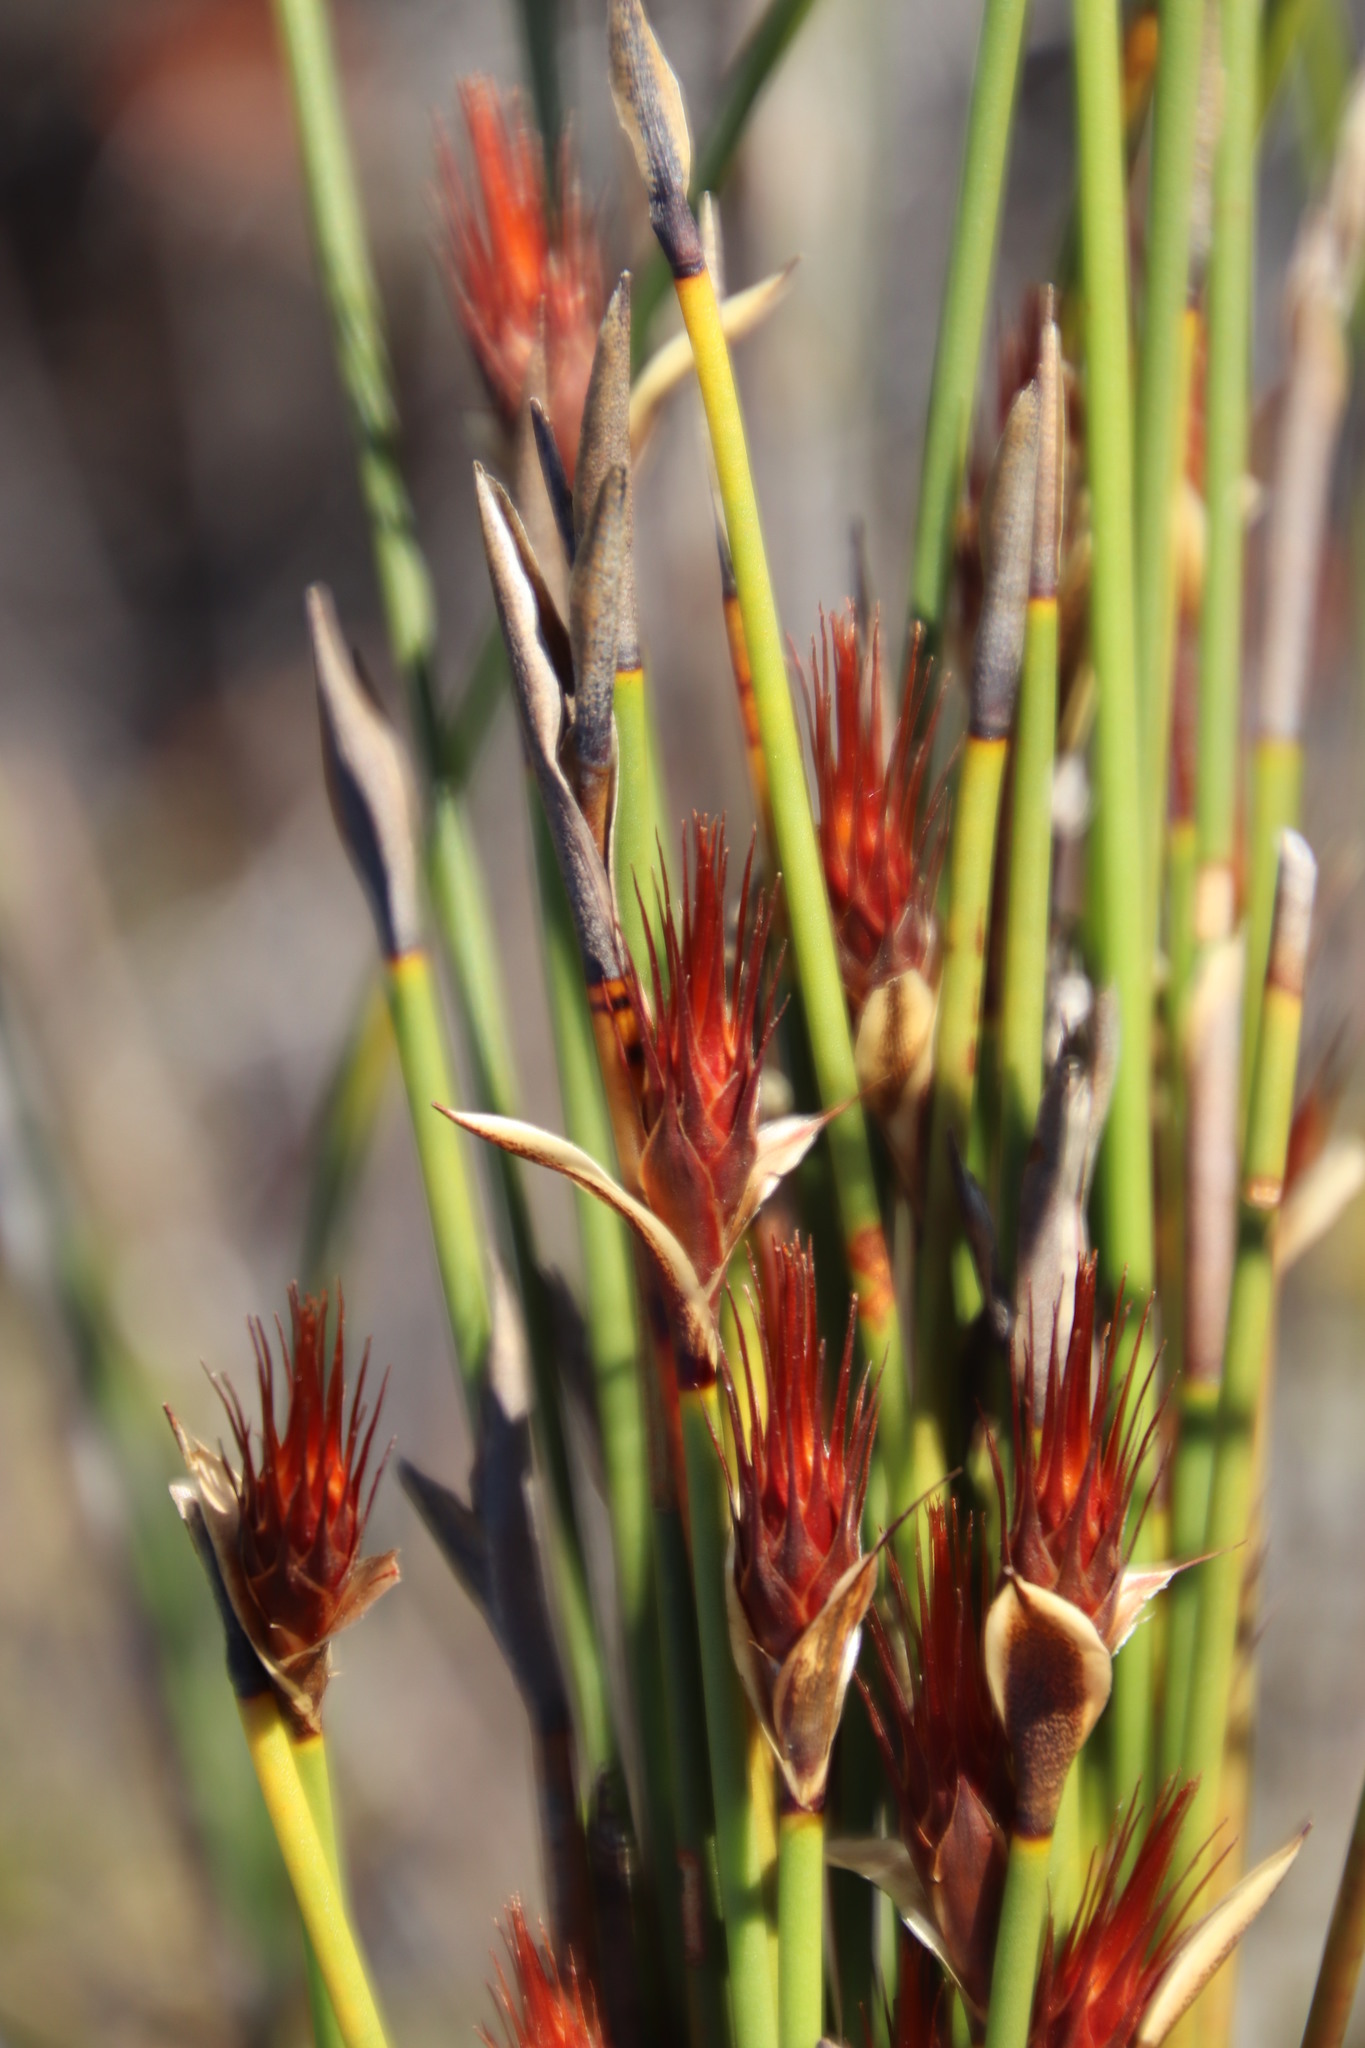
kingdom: Plantae
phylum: Tracheophyta
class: Liliopsida
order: Poales
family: Restionaceae
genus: Hypodiscus
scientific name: Hypodiscus aristatus
